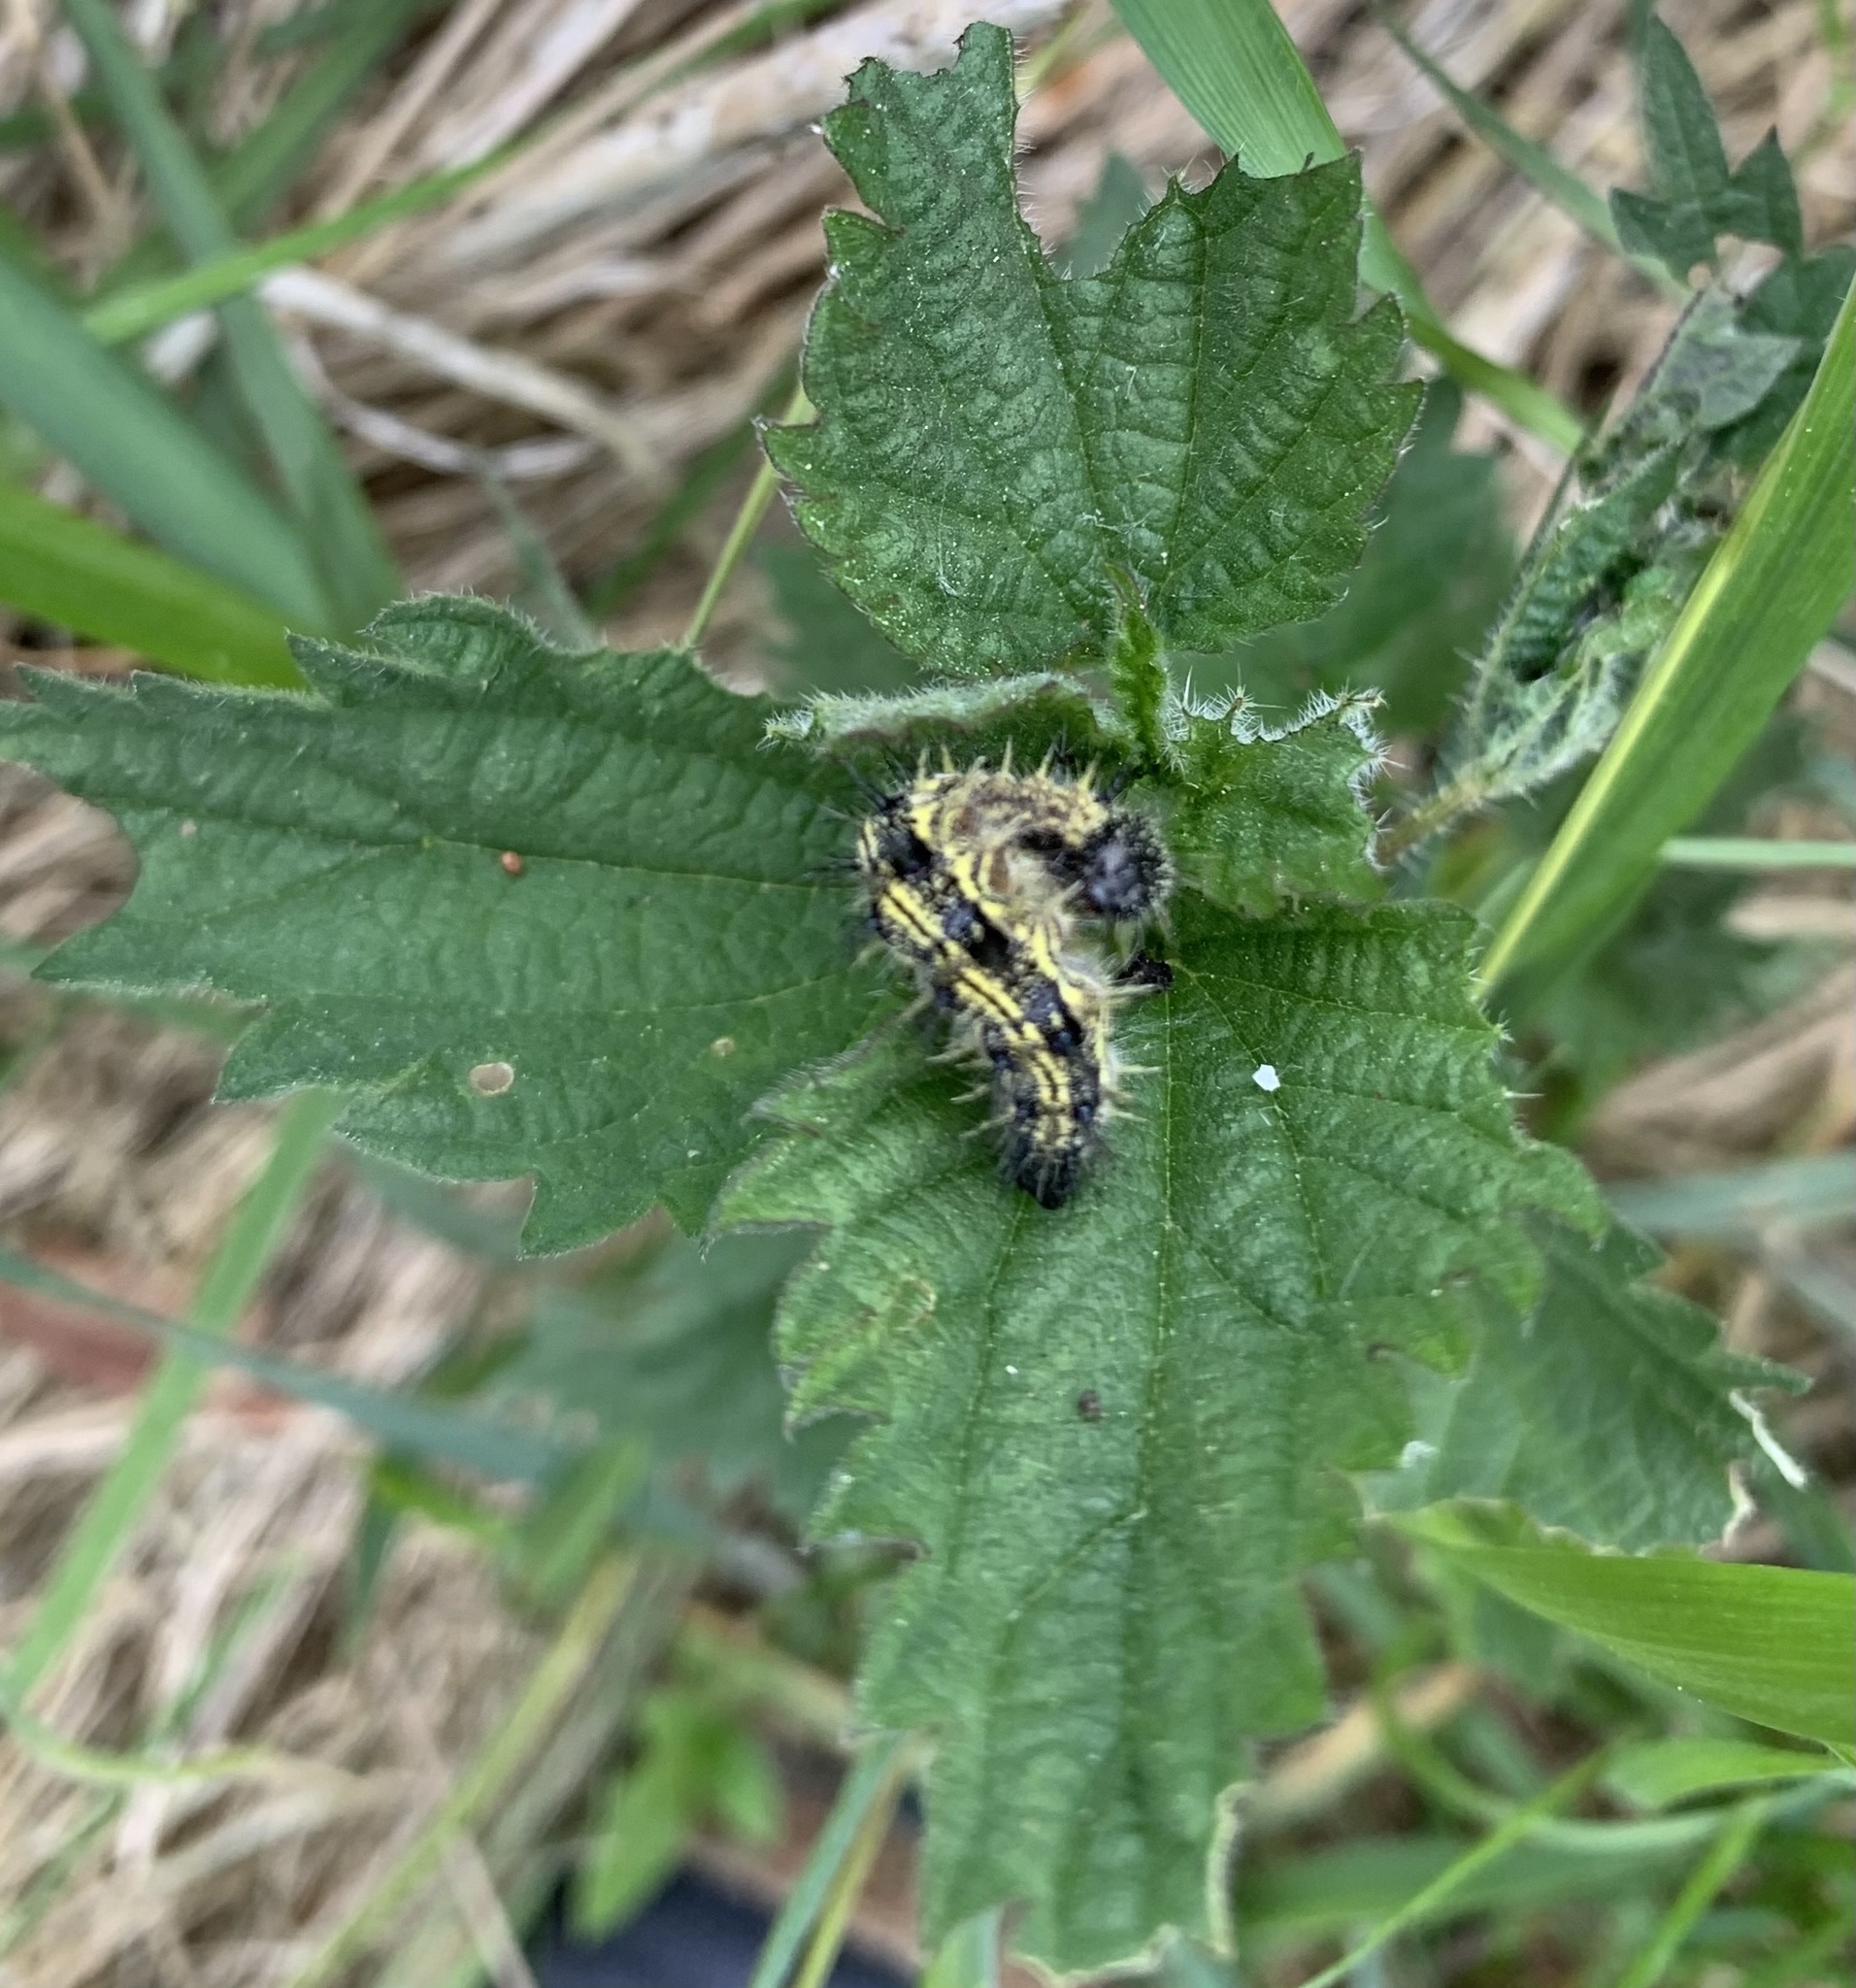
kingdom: Animalia
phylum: Arthropoda
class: Insecta
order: Lepidoptera
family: Nymphalidae
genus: Aglais
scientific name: Aglais urticae
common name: Small tortoiseshell
